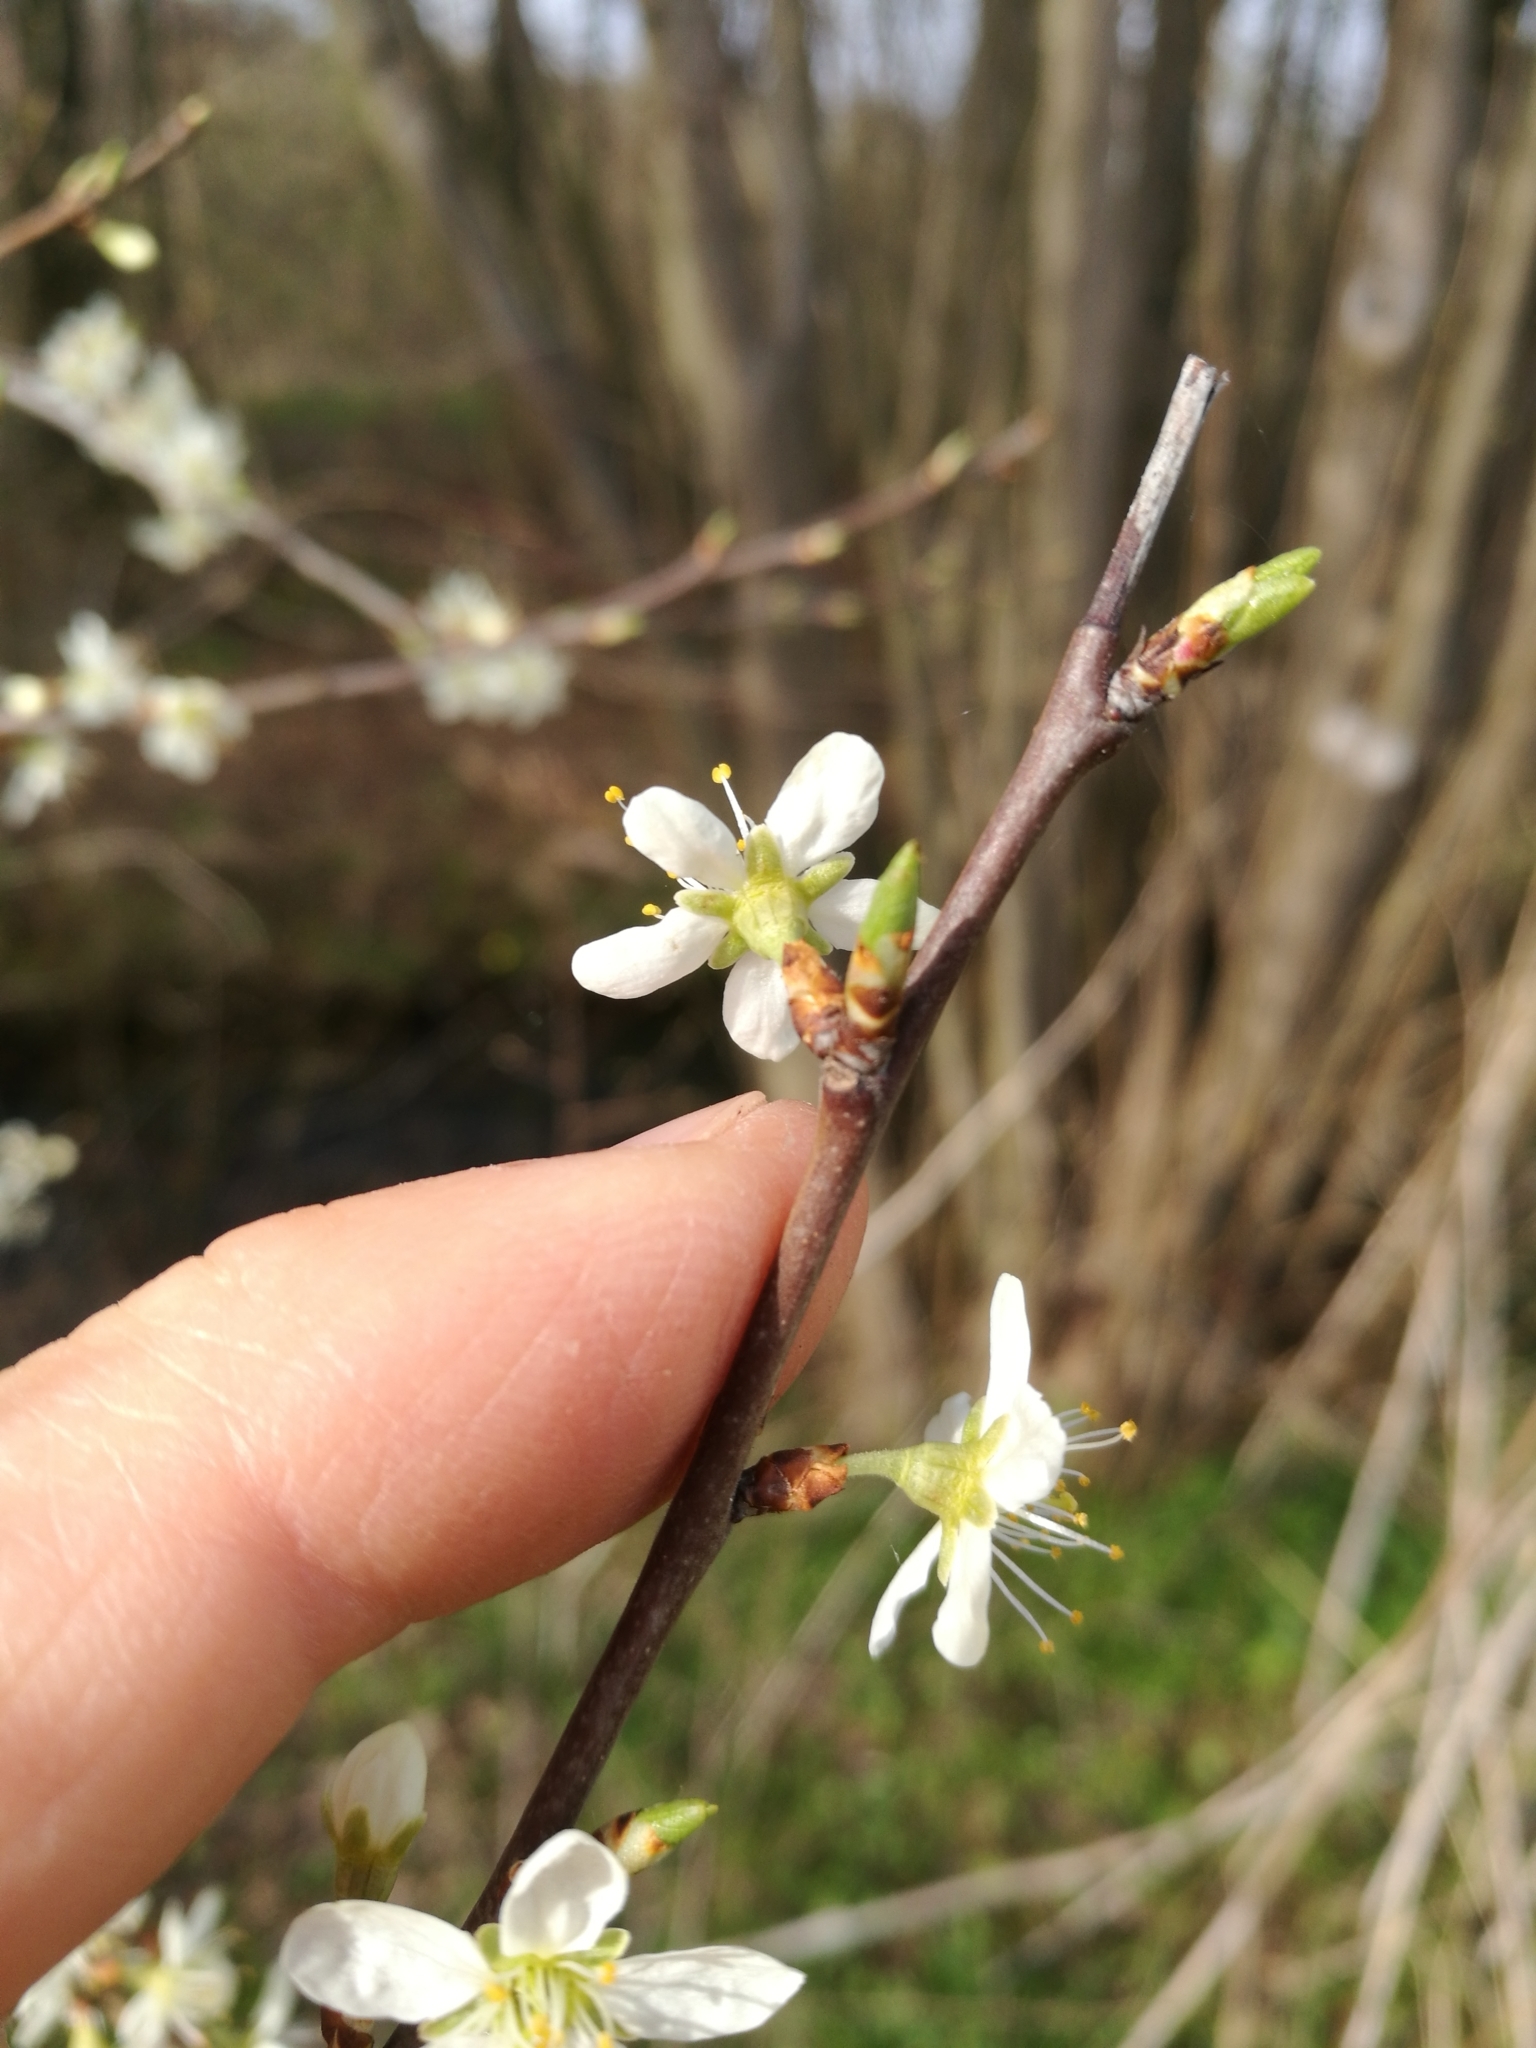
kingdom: Plantae
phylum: Tracheophyta
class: Magnoliopsida
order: Rosales
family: Rosaceae
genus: Prunus
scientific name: Prunus domestica
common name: Wild plum
